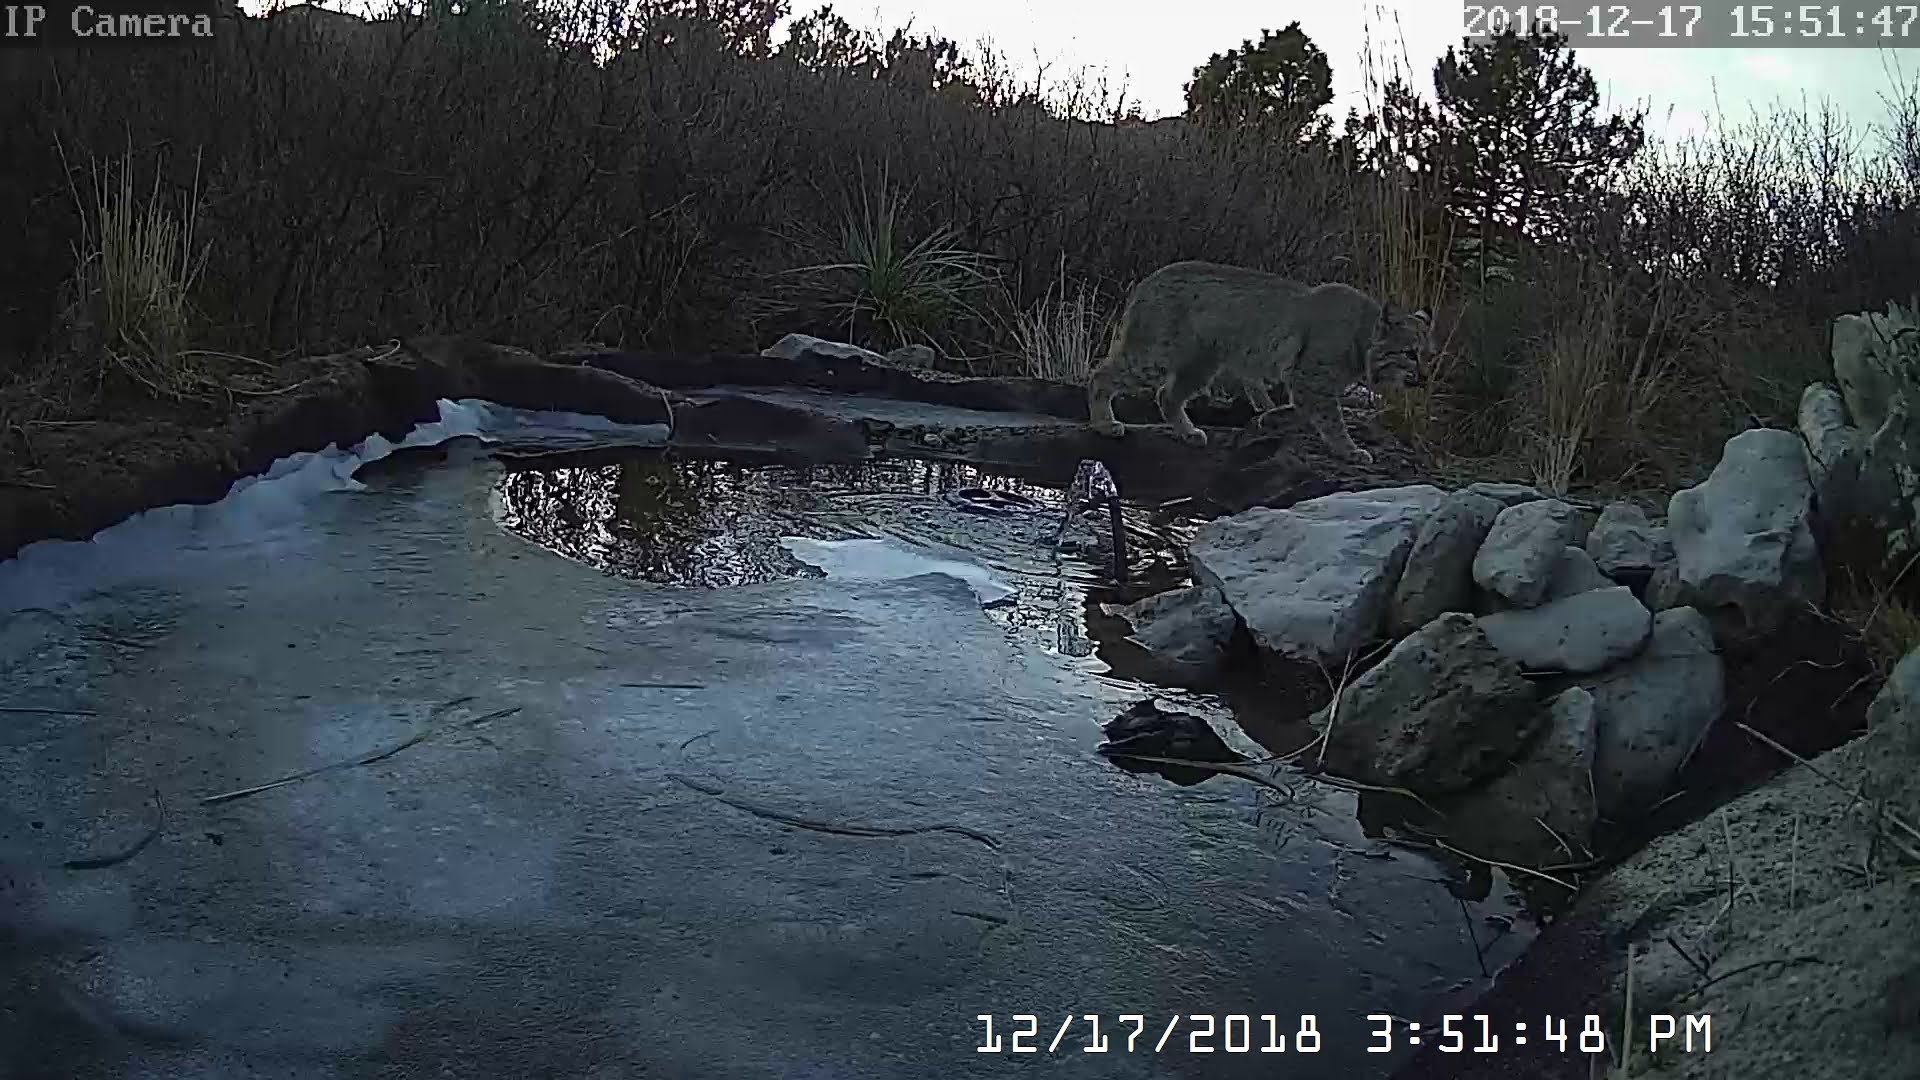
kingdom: Animalia
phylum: Chordata
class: Mammalia
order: Carnivora
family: Felidae
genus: Lynx
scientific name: Lynx rufus
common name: Bobcat
